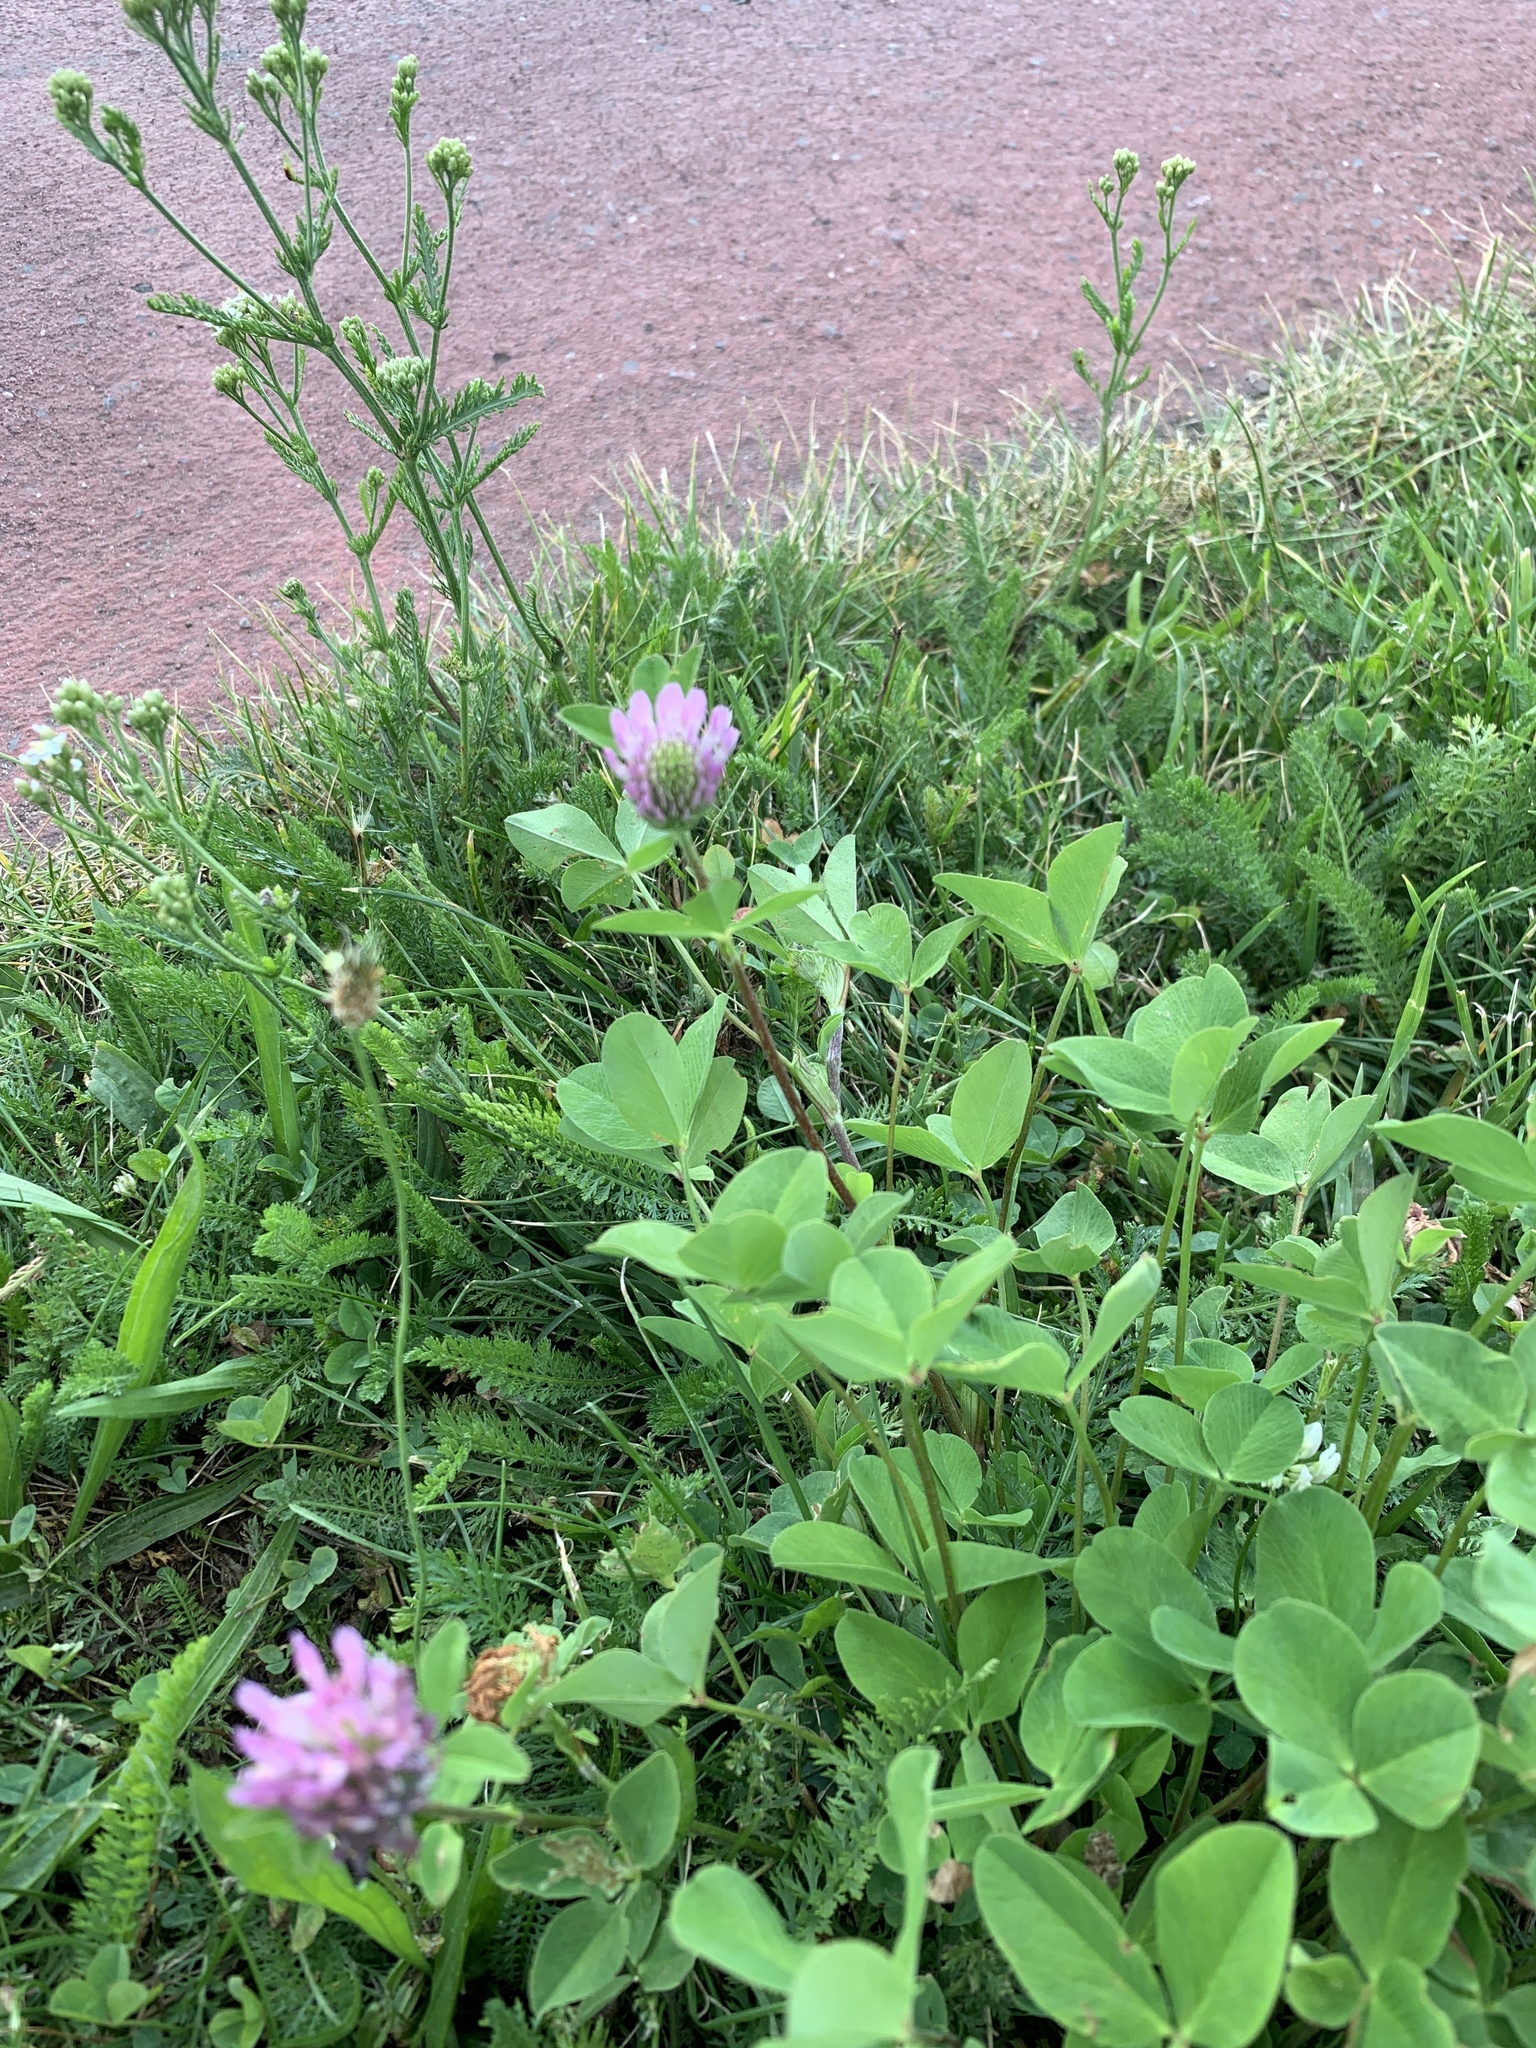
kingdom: Plantae
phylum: Tracheophyta
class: Magnoliopsida
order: Fabales
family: Fabaceae
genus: Trifolium
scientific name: Trifolium pratense
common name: Red clover
